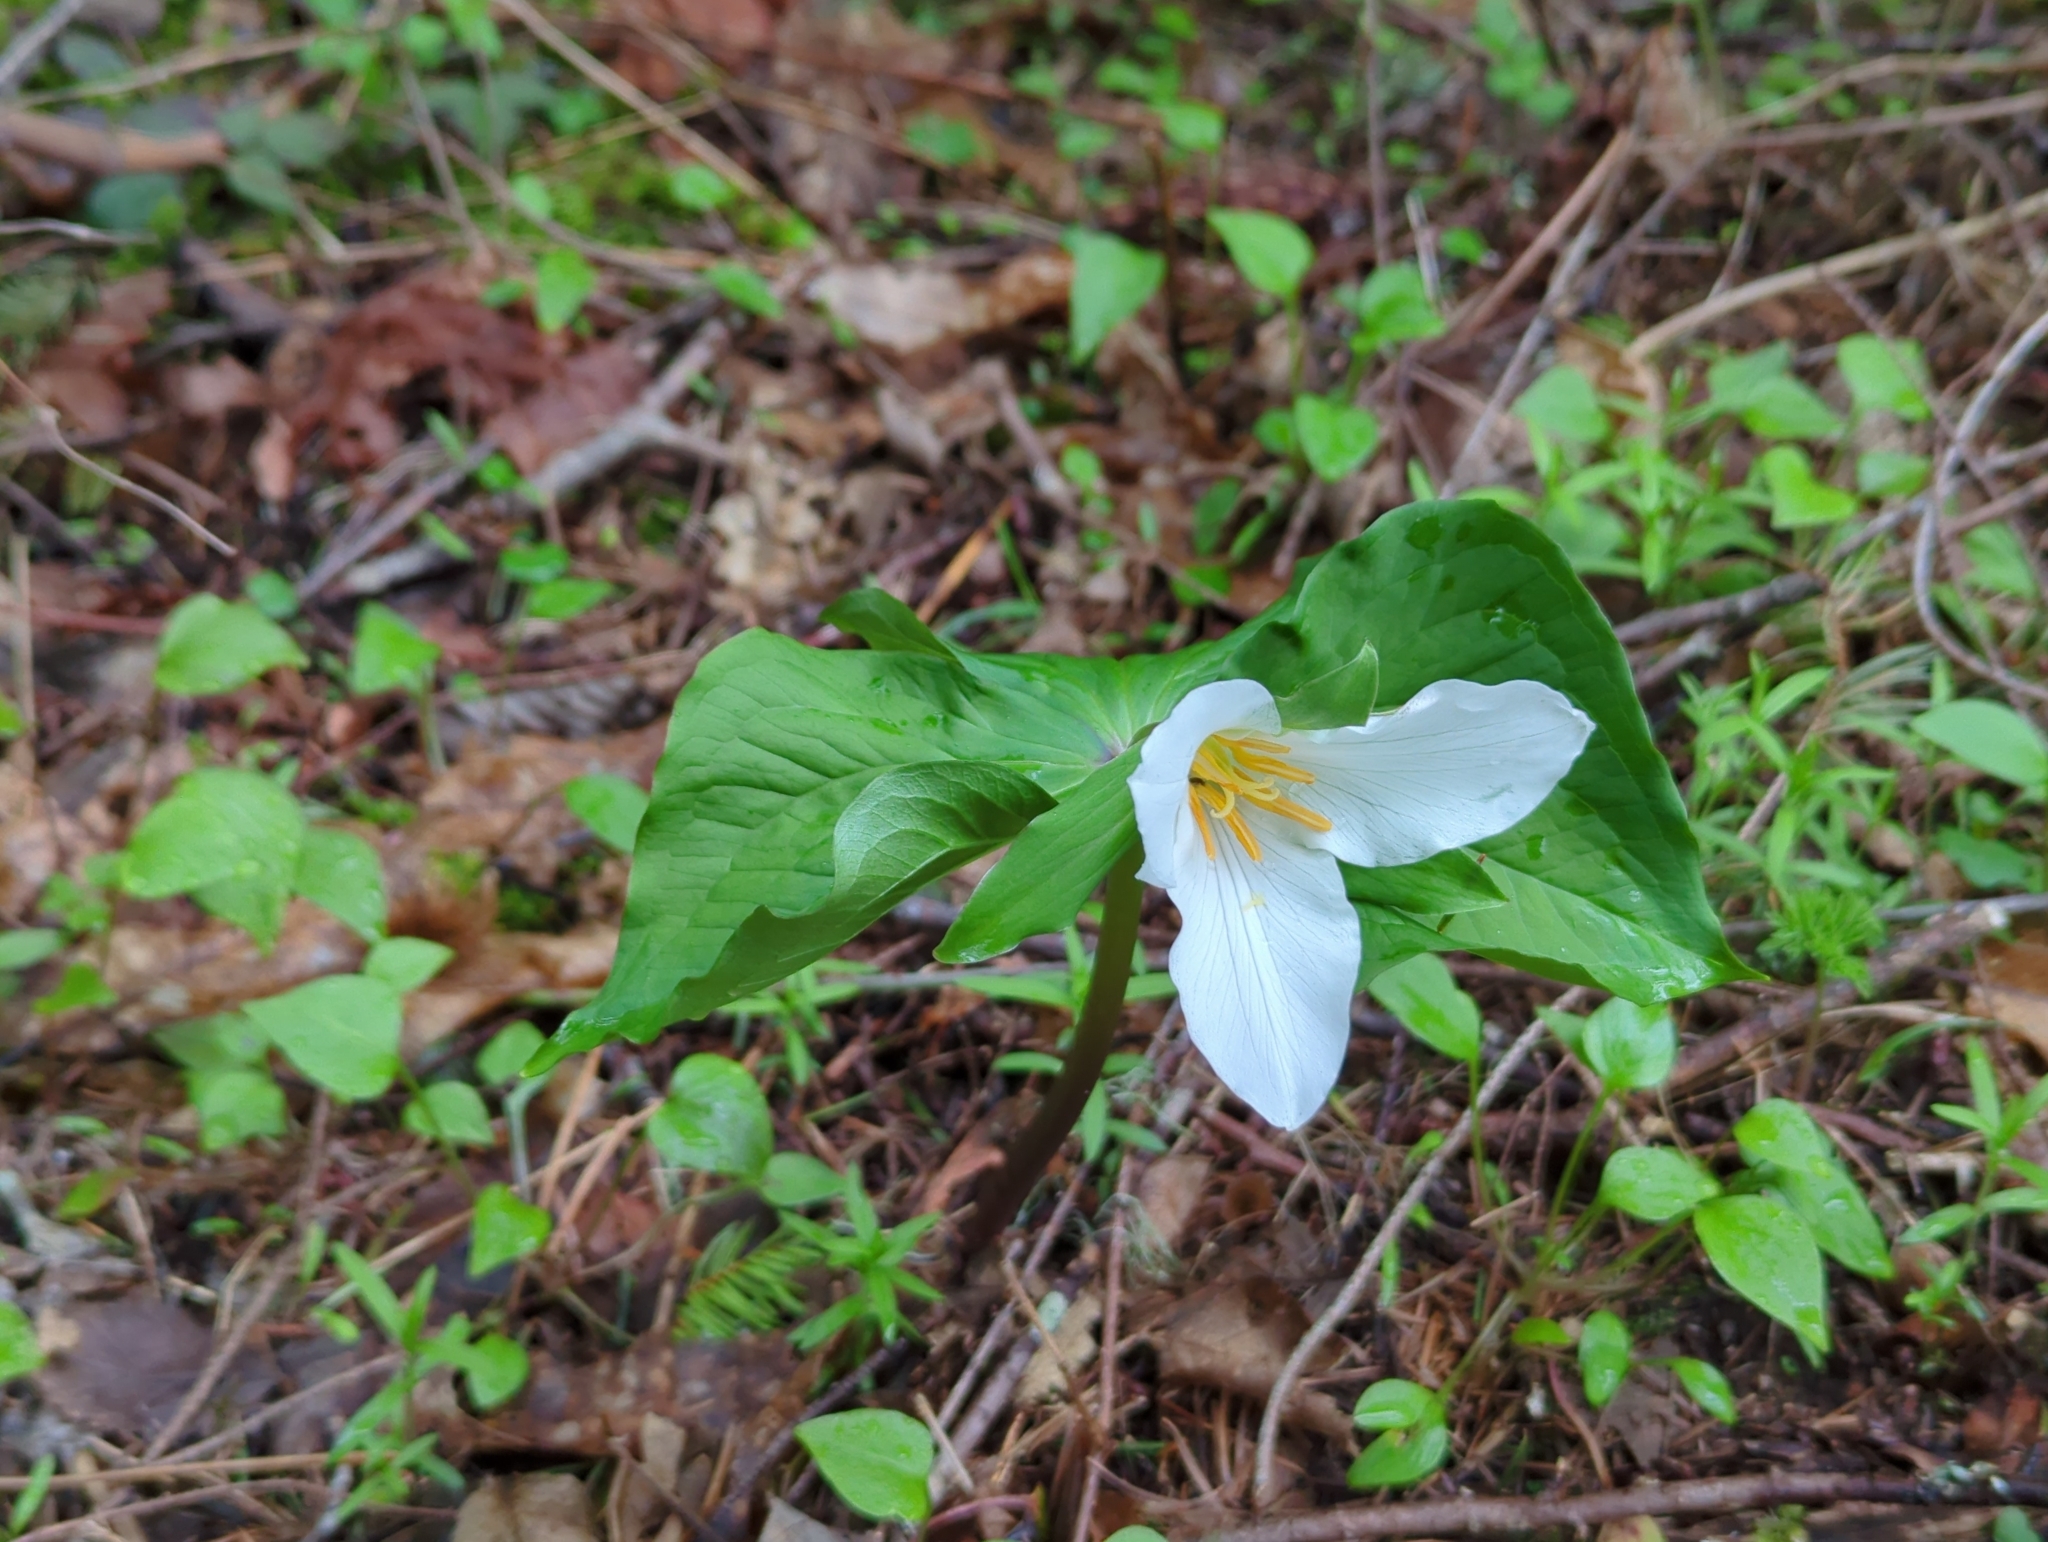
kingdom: Plantae
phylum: Tracheophyta
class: Liliopsida
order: Liliales
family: Melanthiaceae
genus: Trillium
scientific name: Trillium ovatum
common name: Pacific trillium
